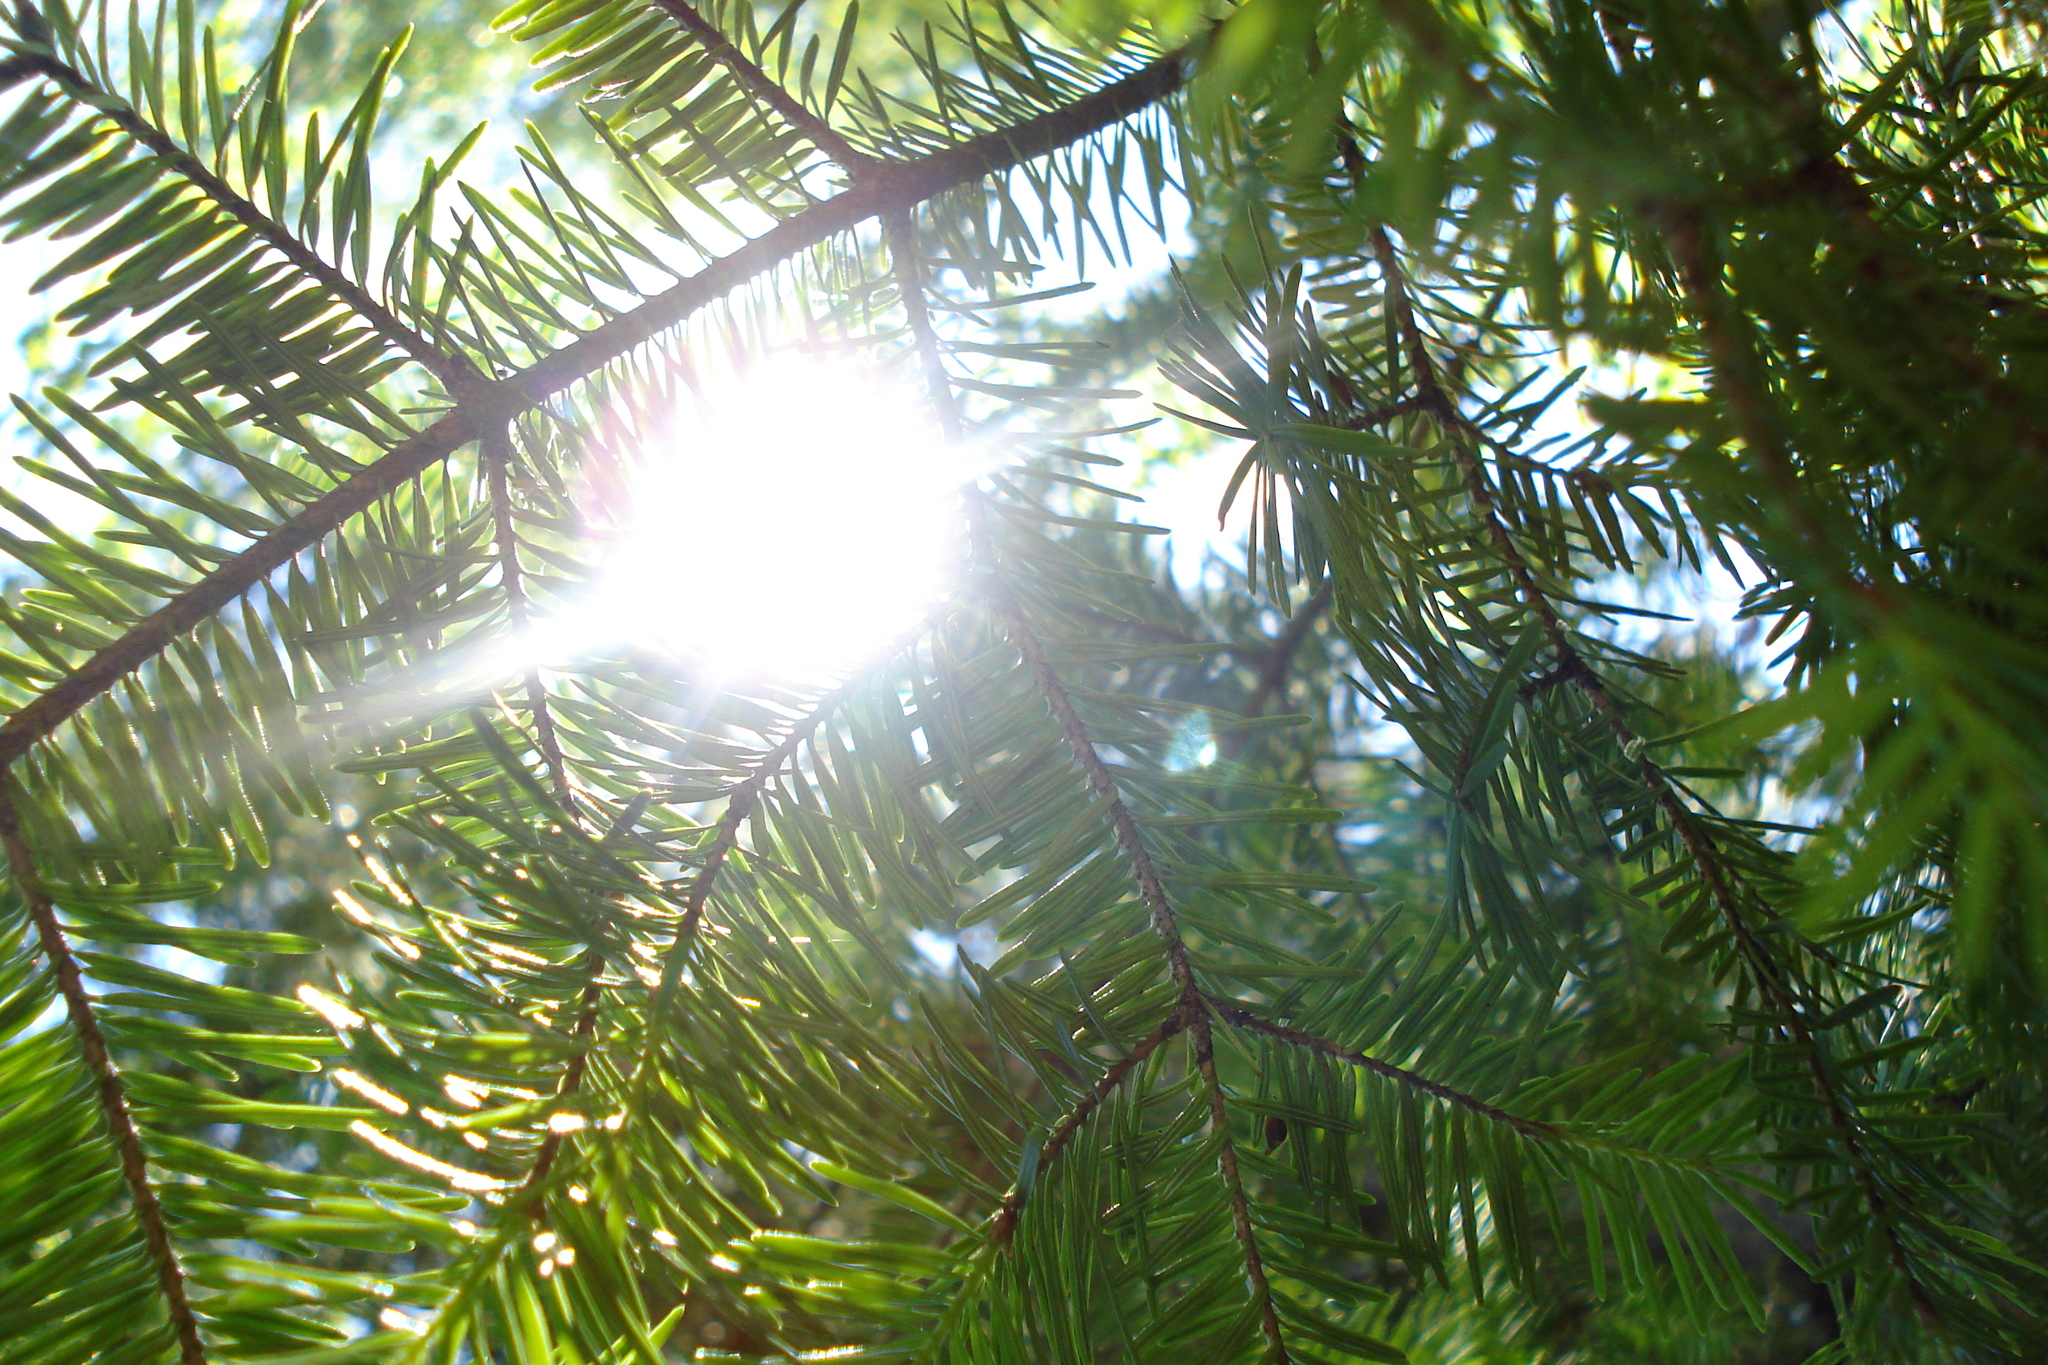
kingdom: Plantae
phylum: Tracheophyta
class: Pinopsida
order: Pinales
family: Pinaceae
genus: Abies
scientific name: Abies balsamea
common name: Balsam fir
